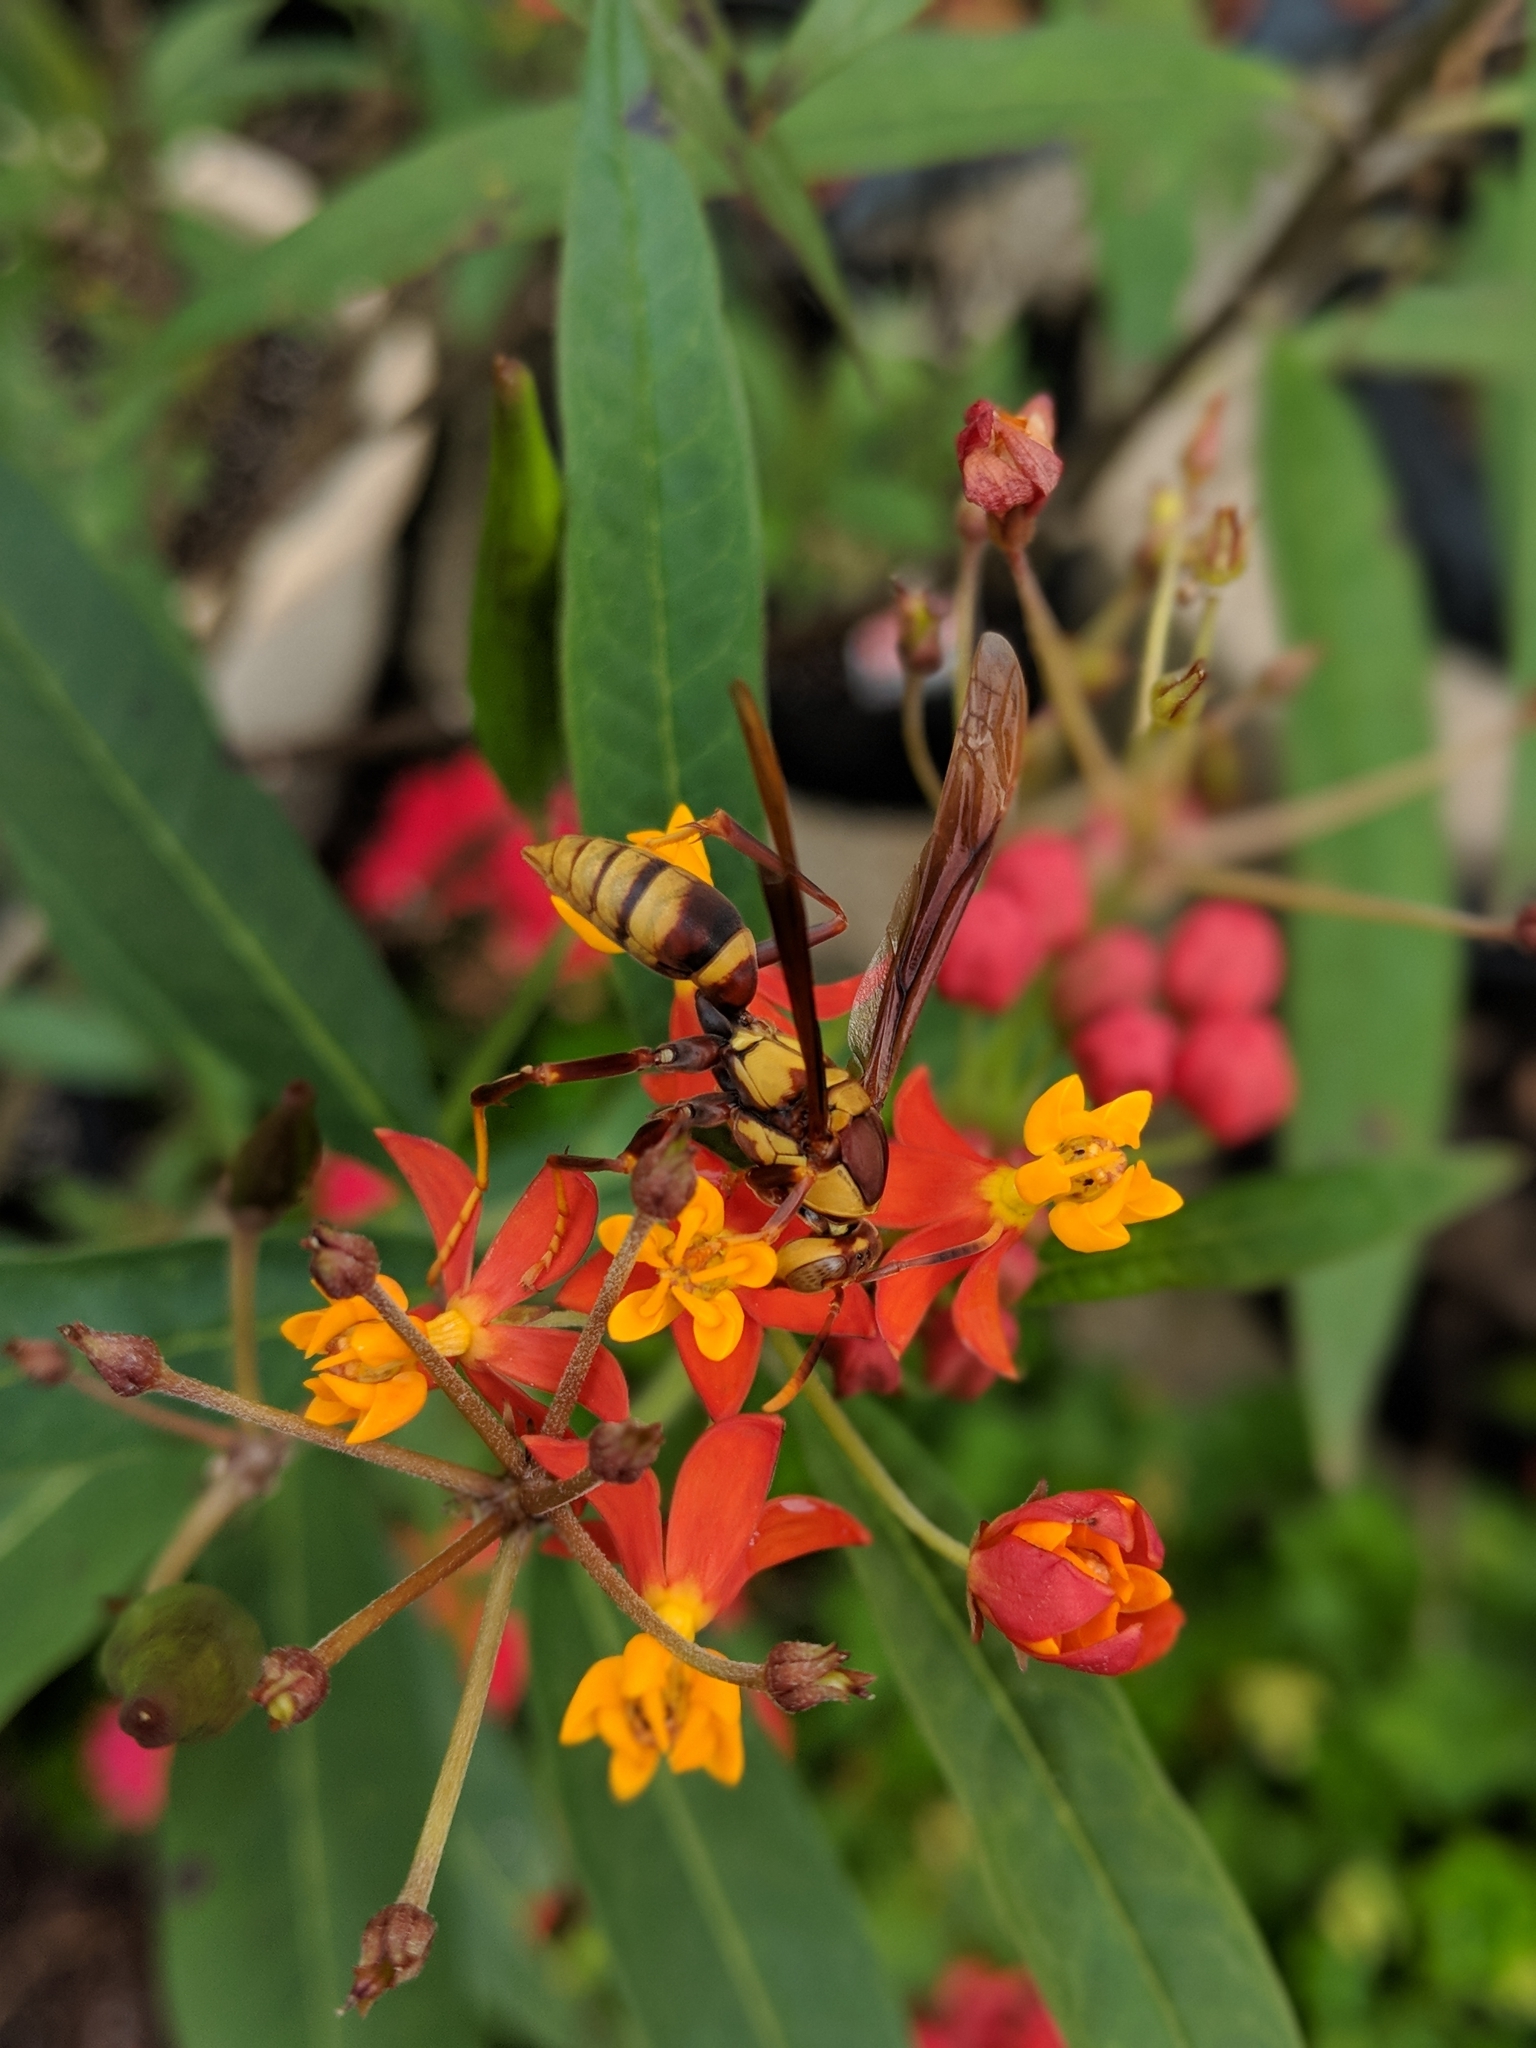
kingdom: Animalia
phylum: Arthropoda
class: Insecta
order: Hymenoptera
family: Eumenidae
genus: Polistes
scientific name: Polistes major
